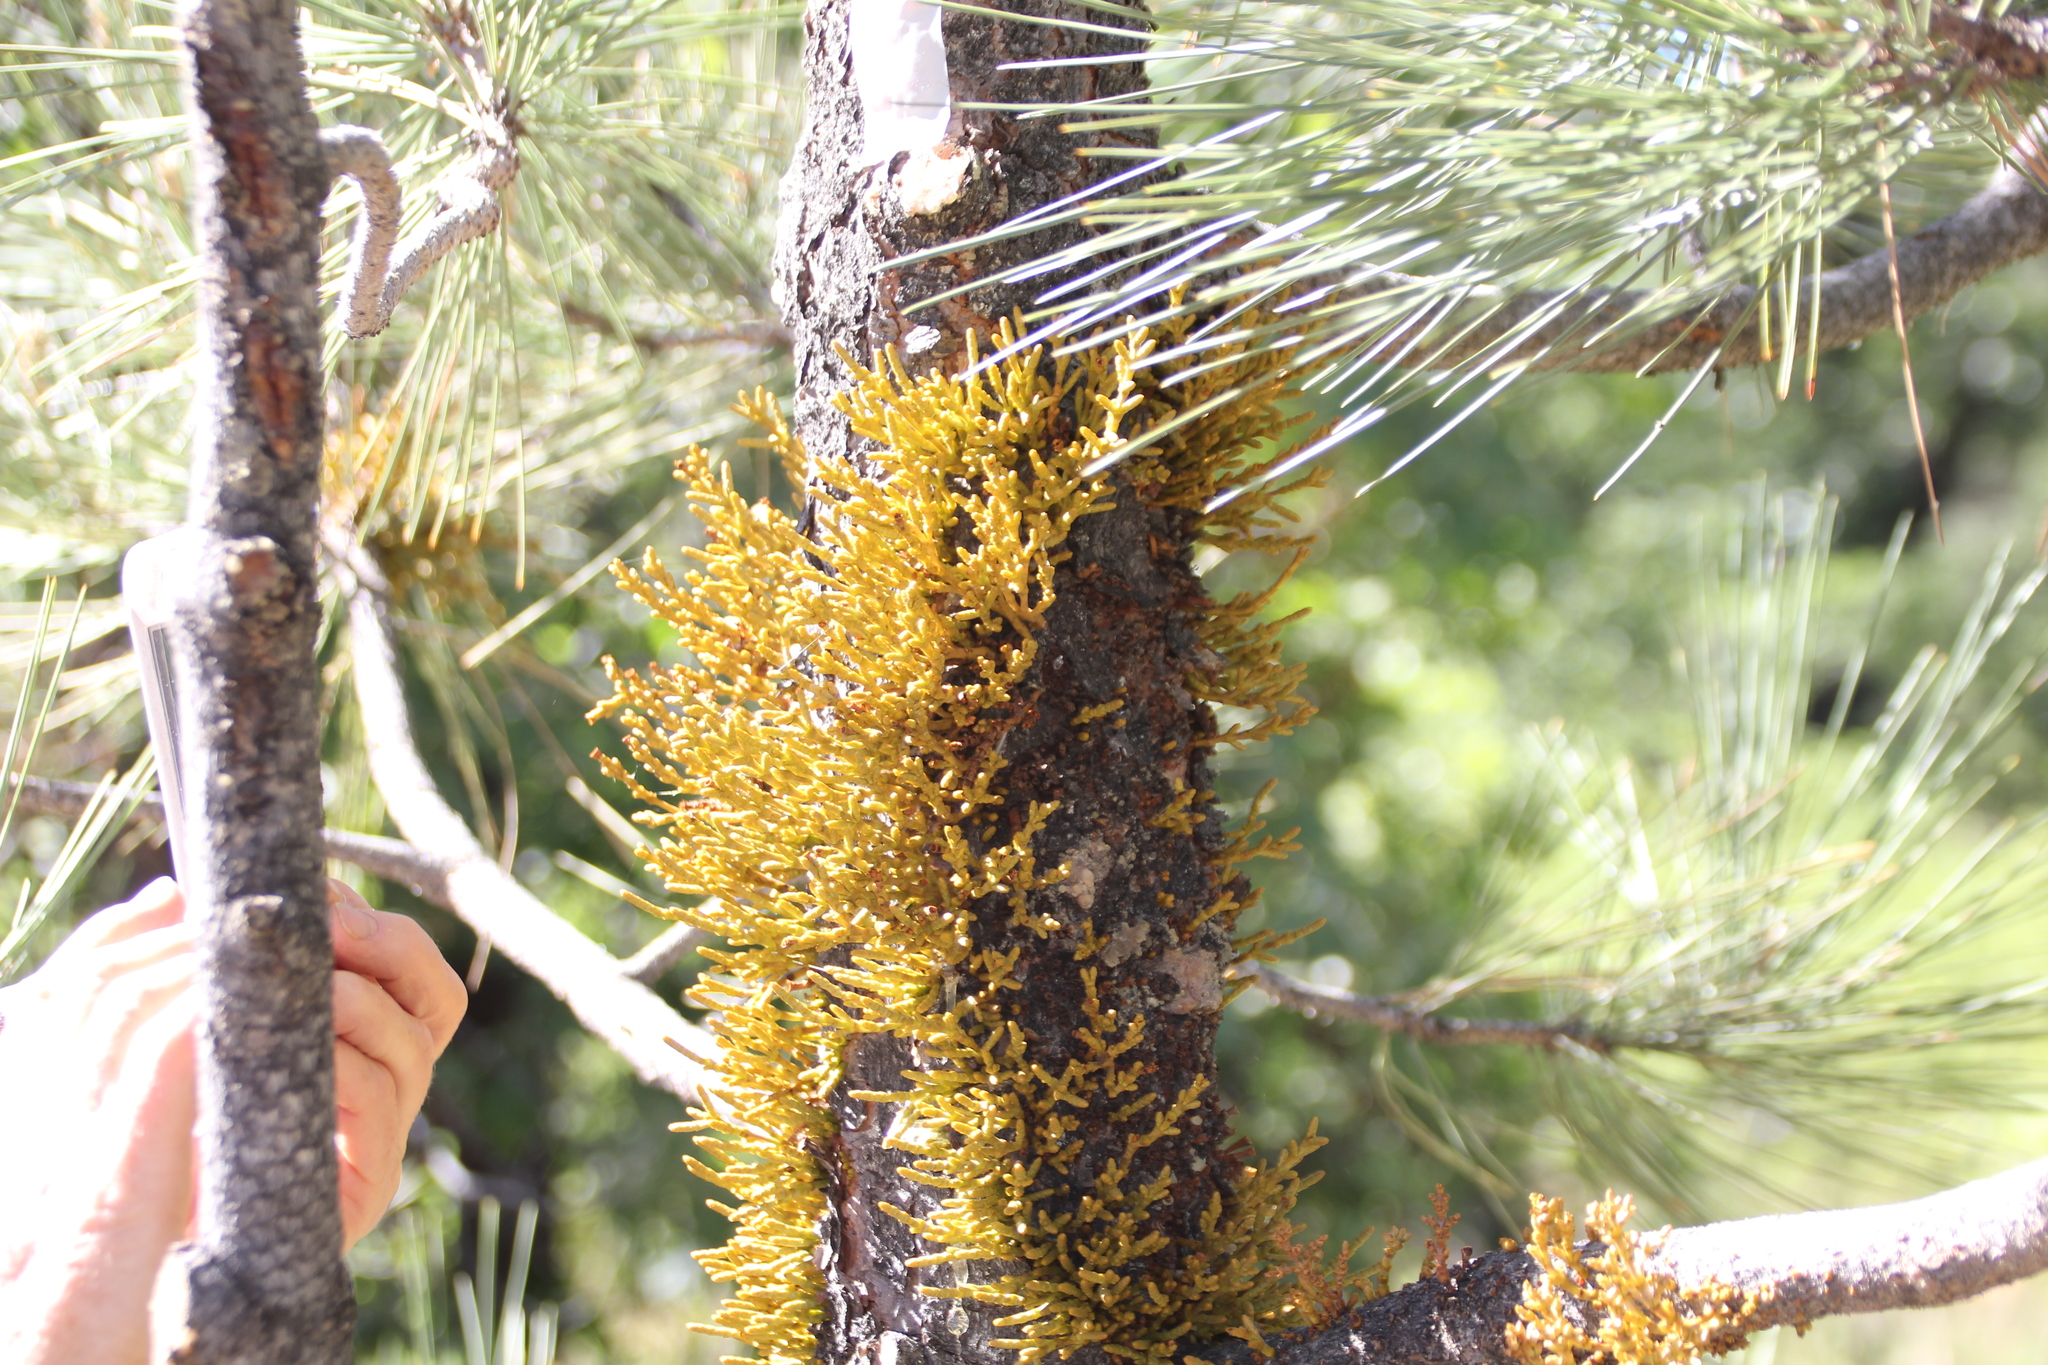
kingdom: Plantae
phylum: Tracheophyta
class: Magnoliopsida
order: Santalales
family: Viscaceae
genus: Arceuthobium
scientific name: Arceuthobium campylopodum
